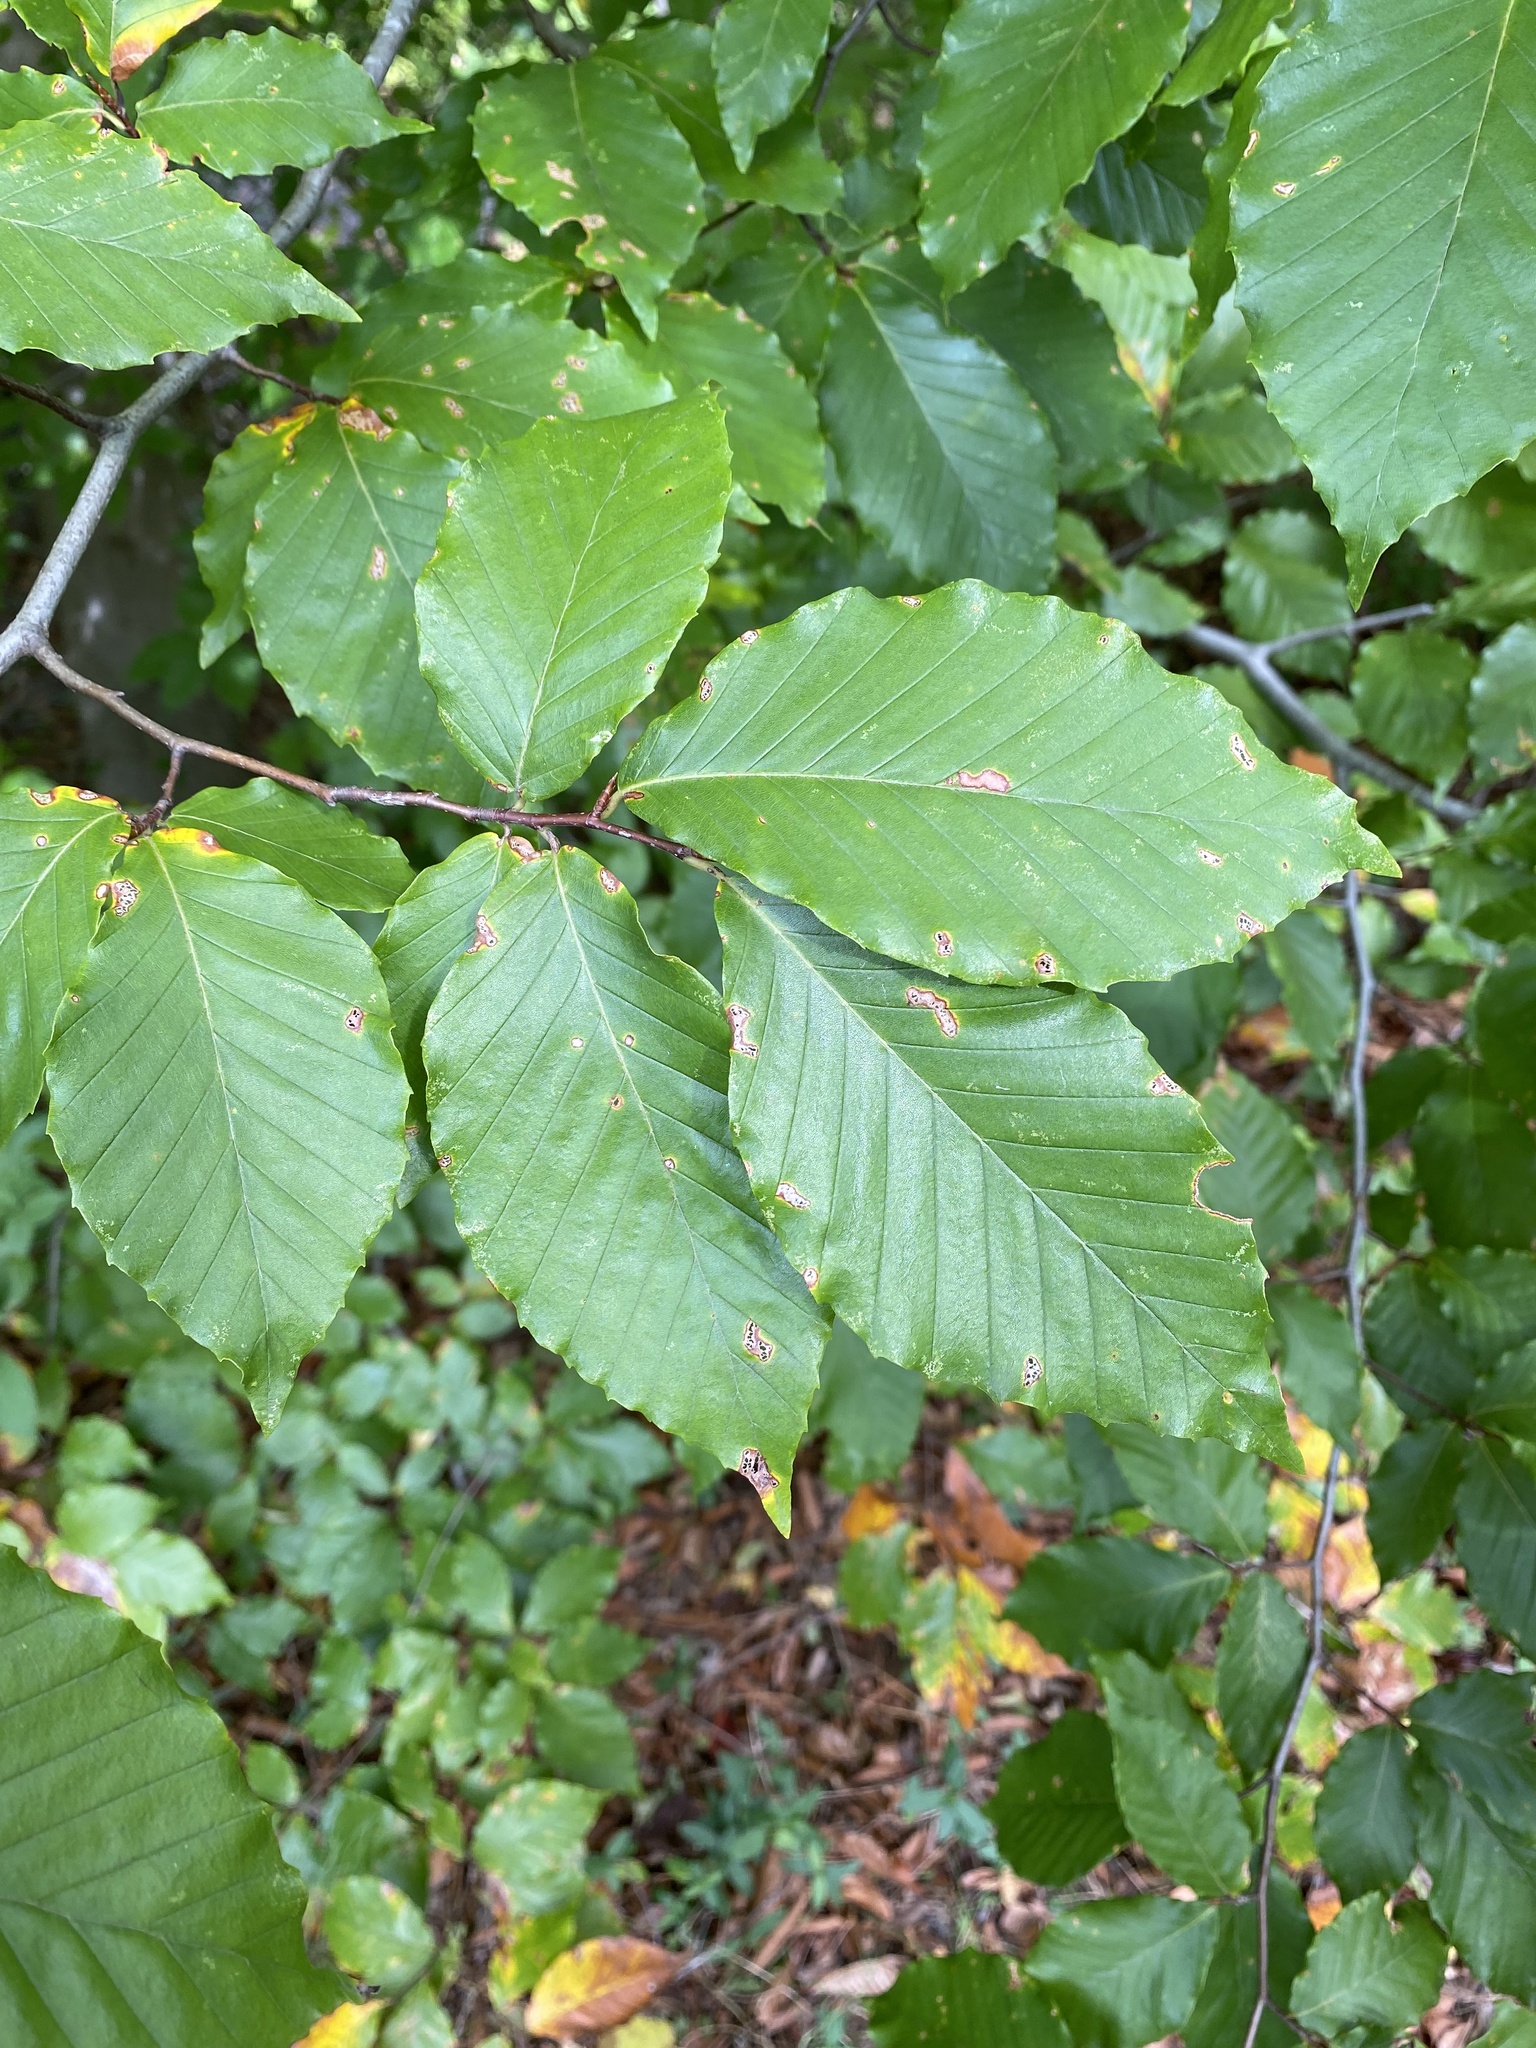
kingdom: Plantae
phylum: Tracheophyta
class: Magnoliopsida
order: Fagales
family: Fagaceae
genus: Fagus
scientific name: Fagus grandifolia
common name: American beech
